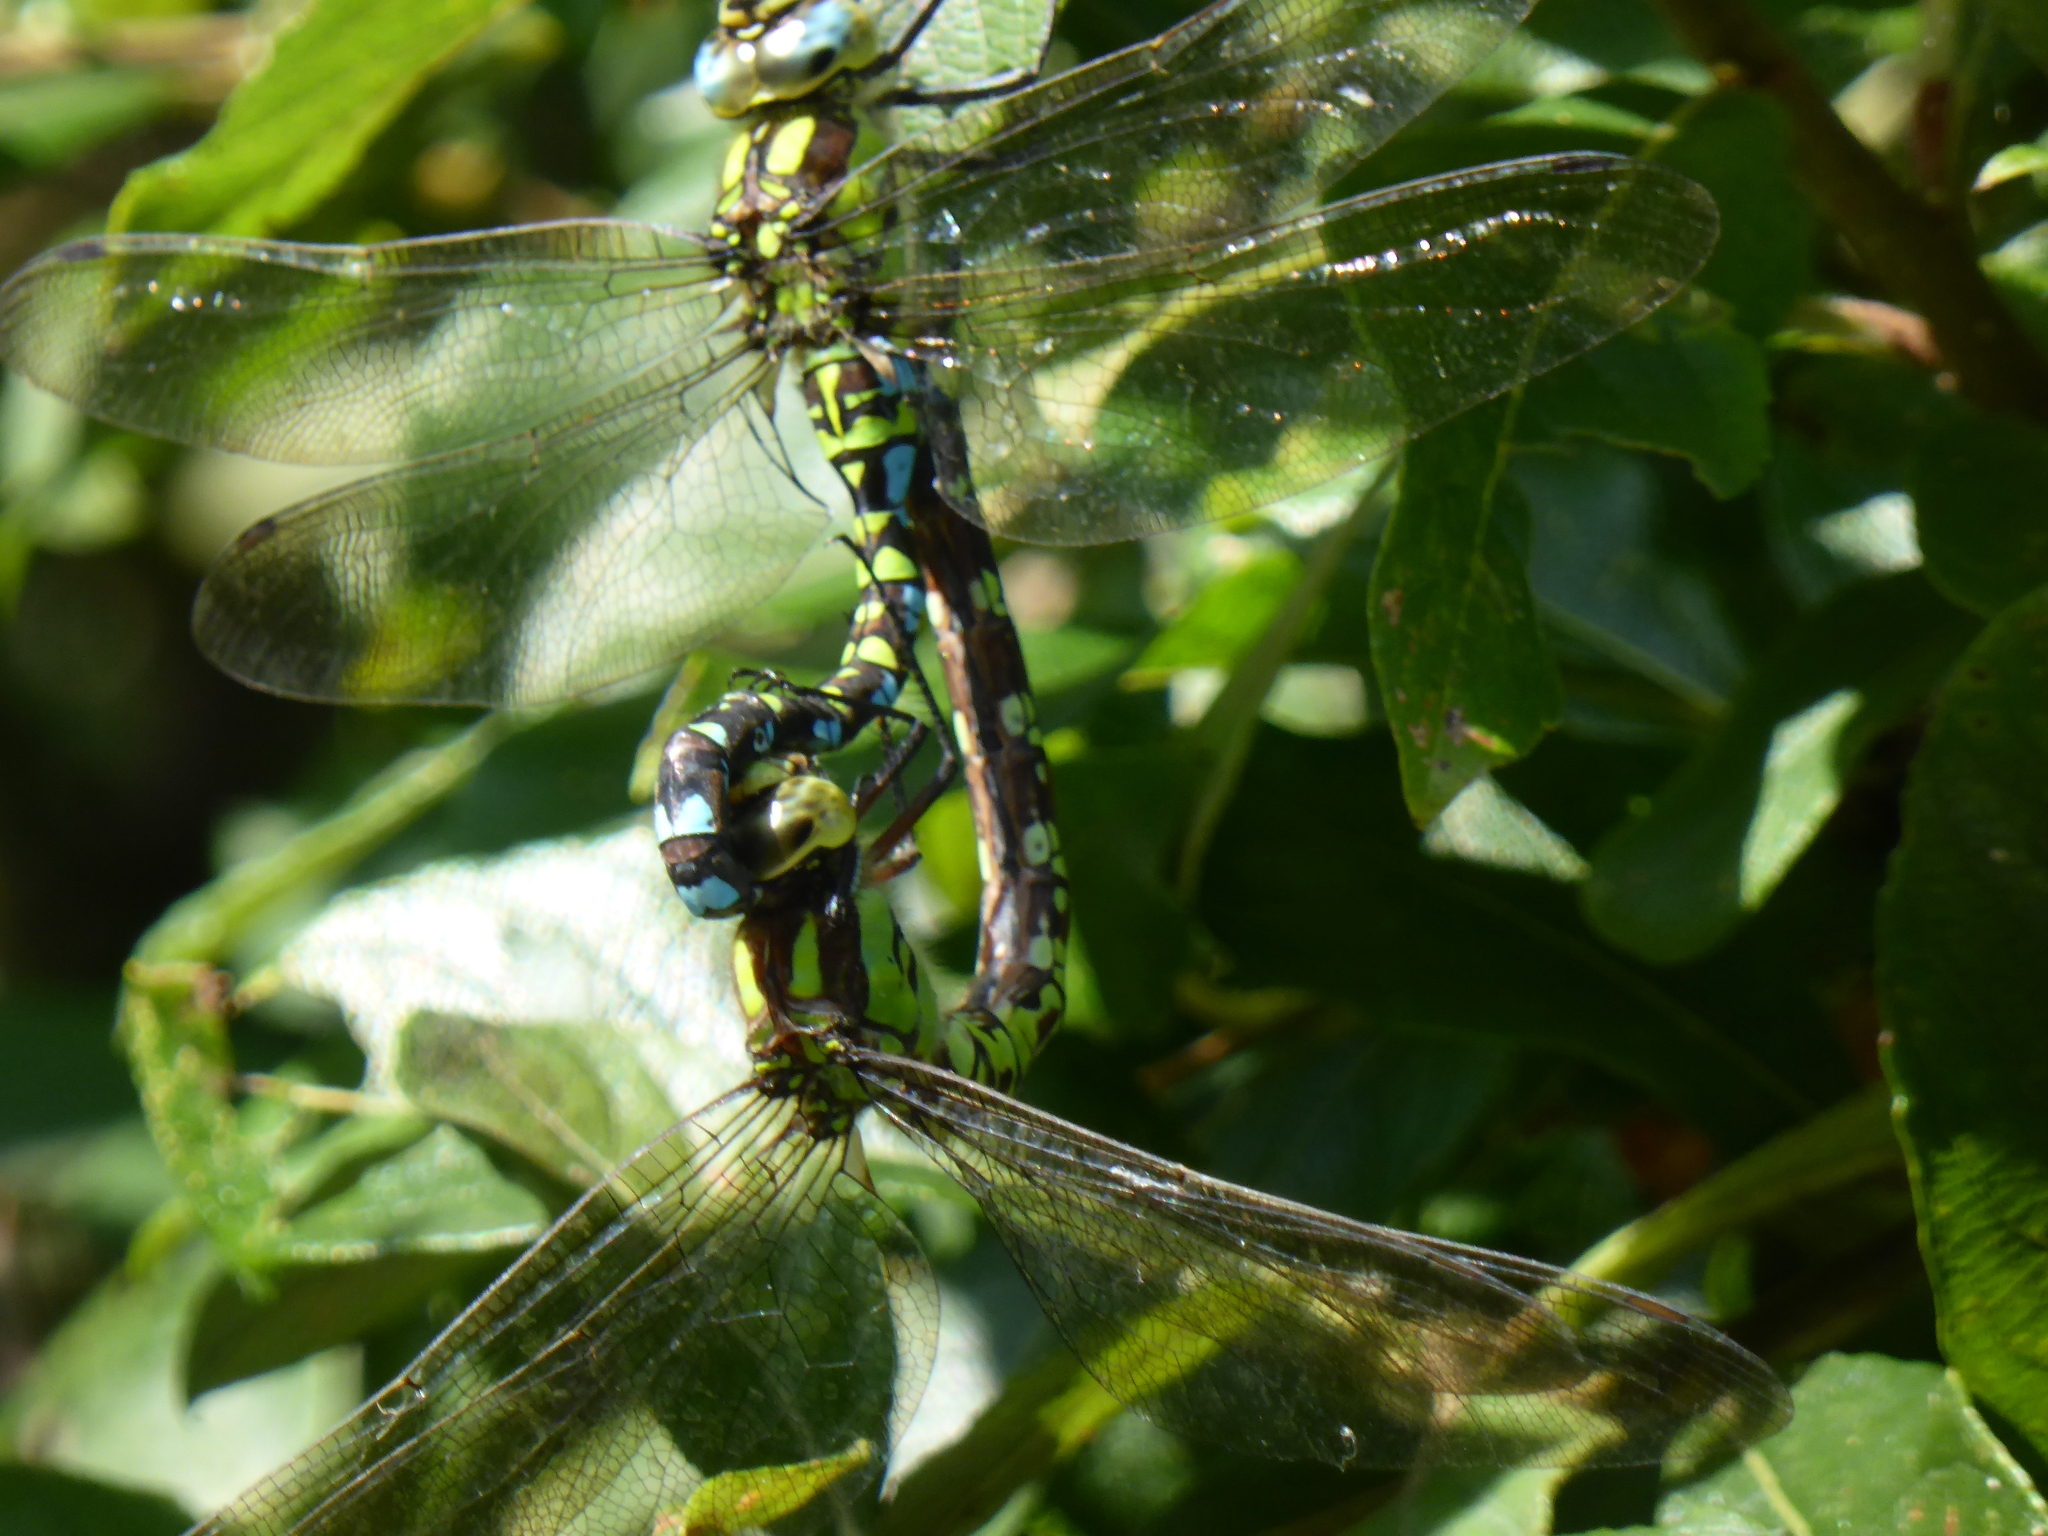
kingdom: Animalia
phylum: Arthropoda
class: Insecta
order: Odonata
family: Aeshnidae
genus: Aeshna
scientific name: Aeshna cyanea
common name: Southern hawker
